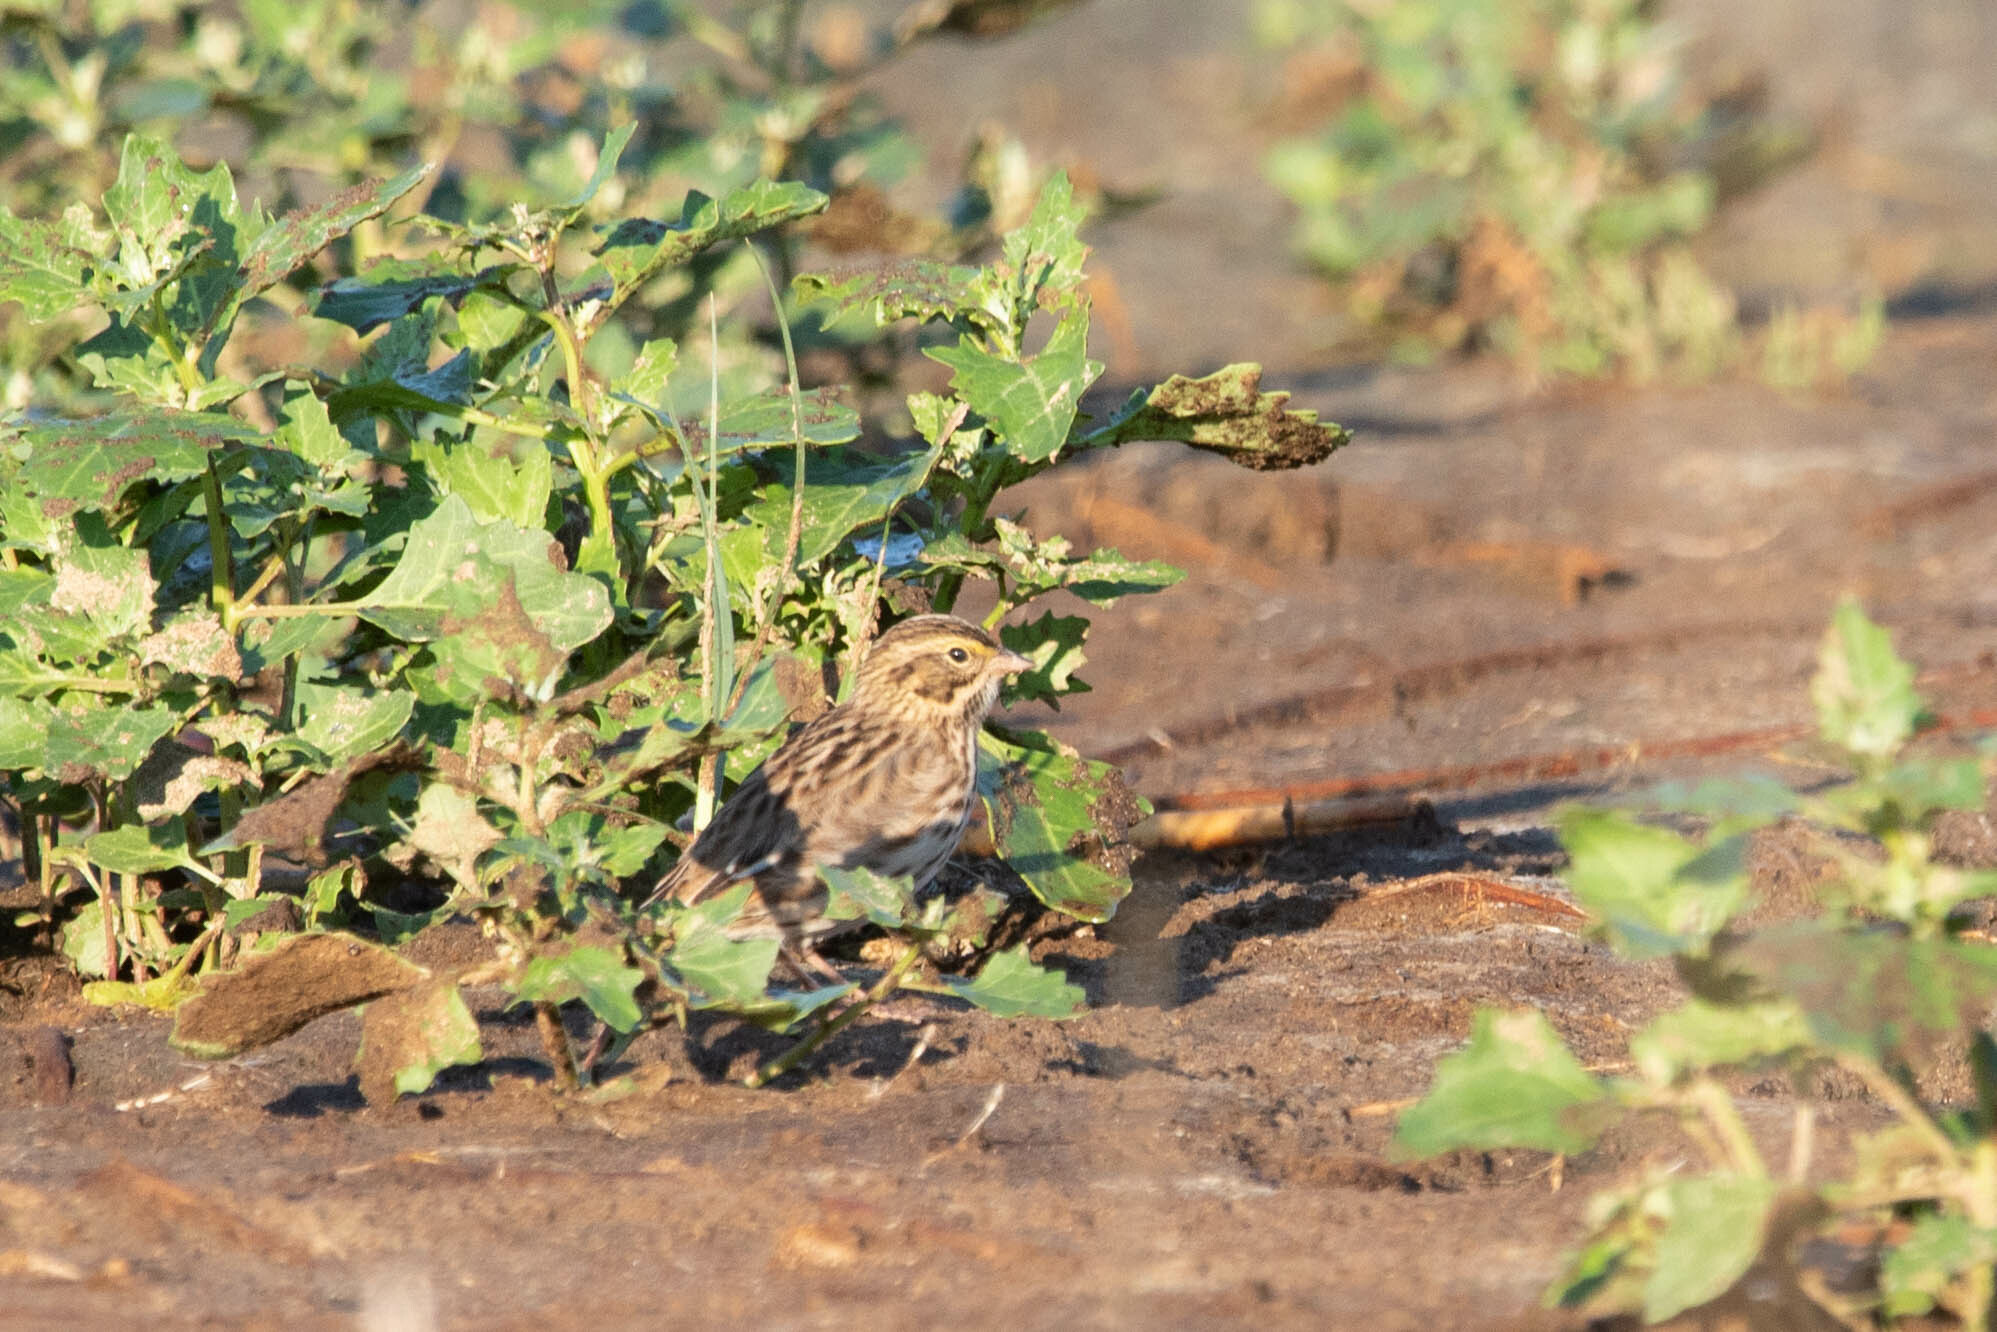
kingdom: Animalia
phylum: Chordata
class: Aves
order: Passeriformes
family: Passerellidae
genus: Passerculus
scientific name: Passerculus sandwichensis
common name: Savannah sparrow
